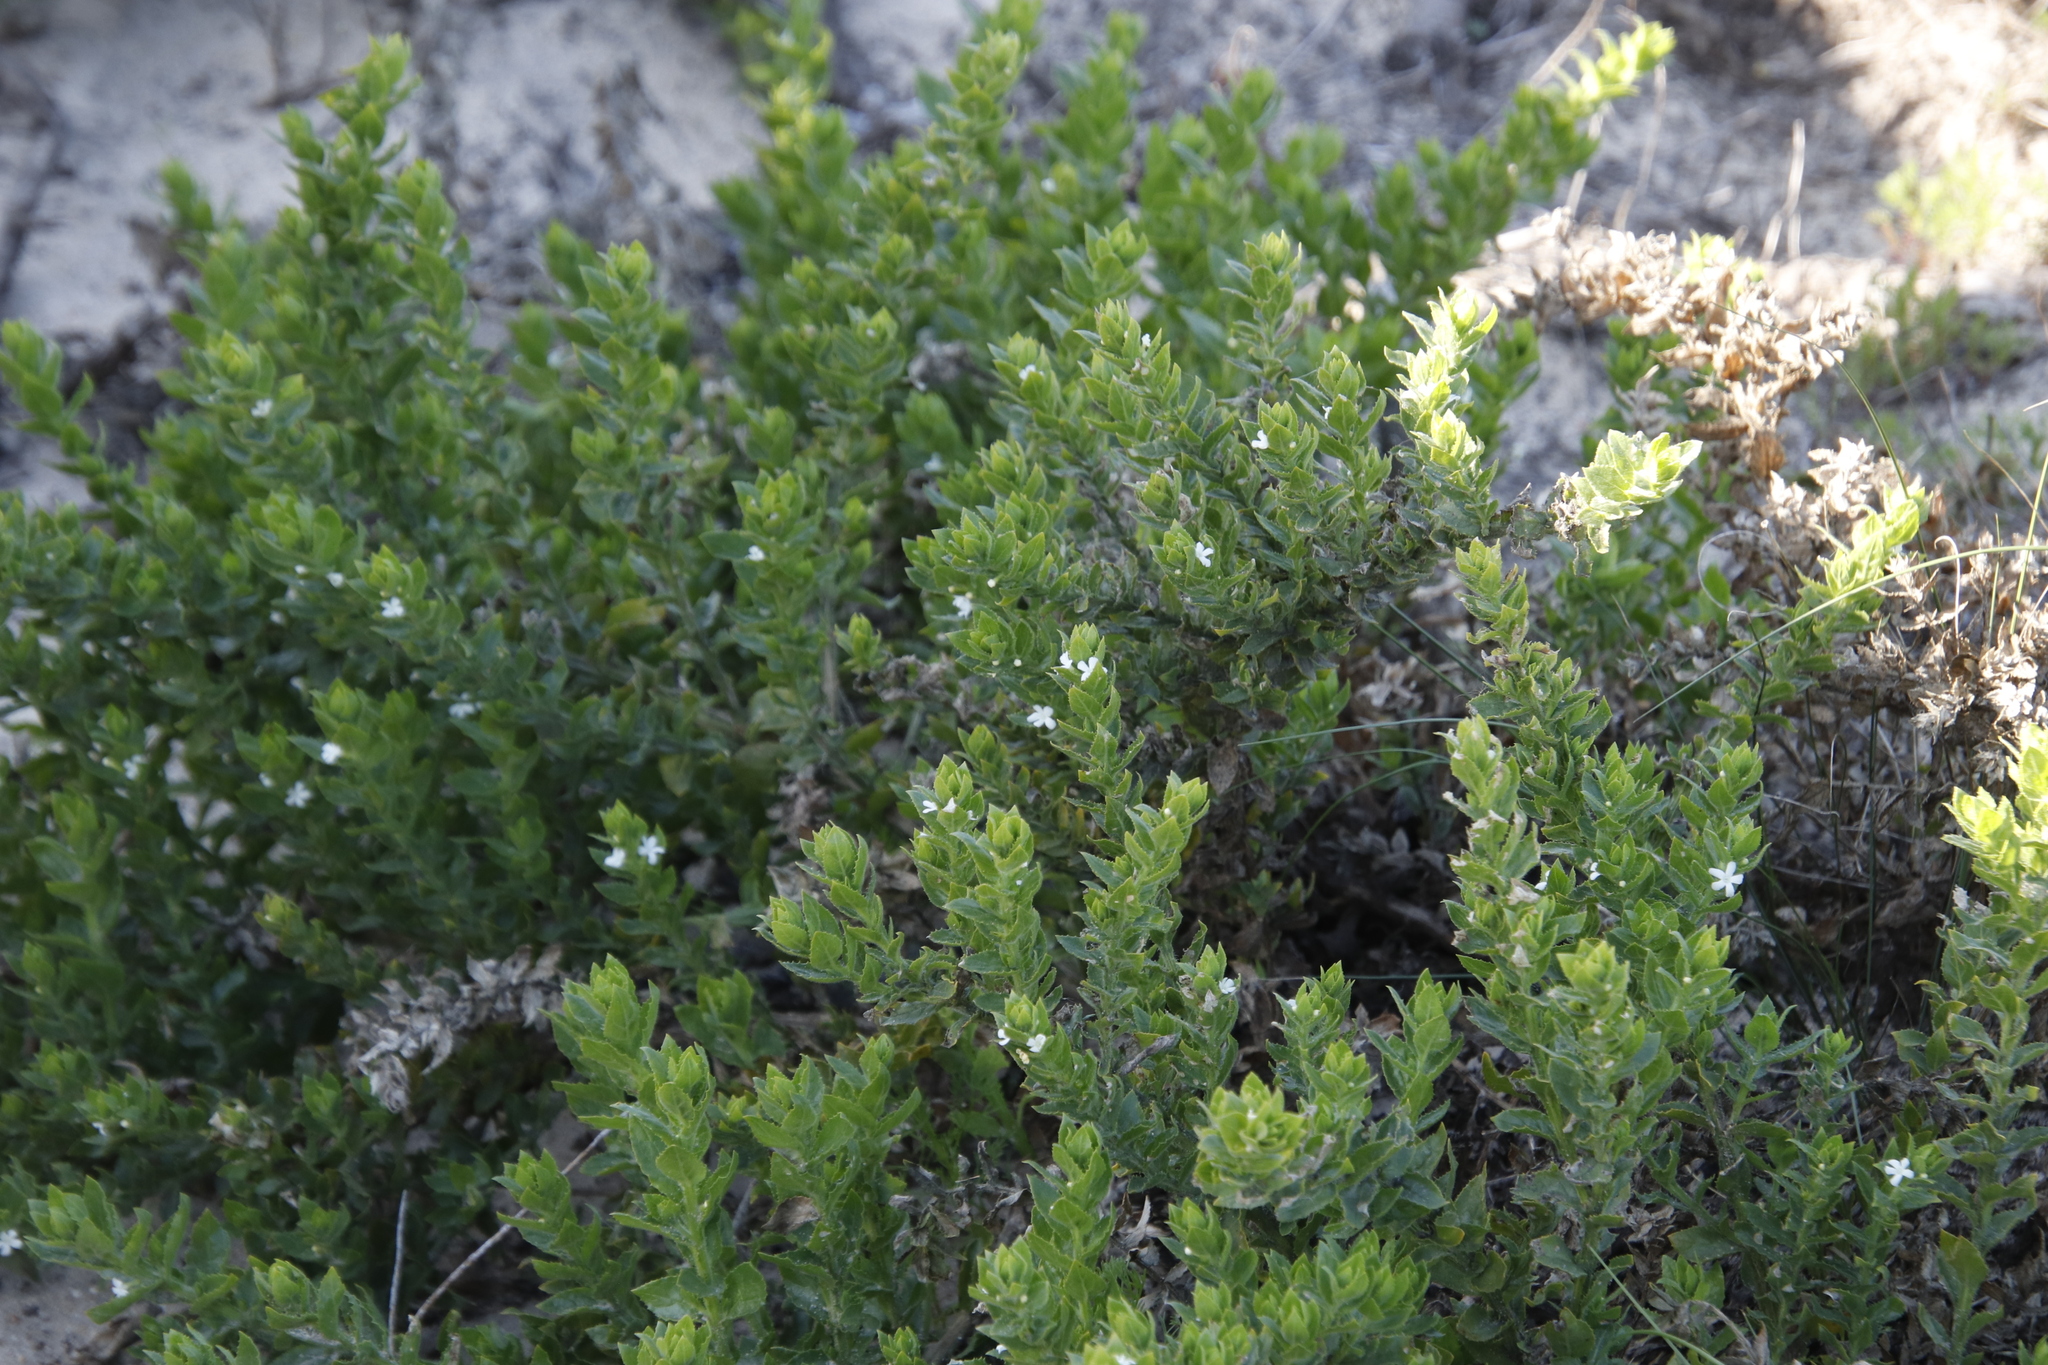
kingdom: Plantae
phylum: Tracheophyta
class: Magnoliopsida
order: Lamiales
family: Scrophulariaceae
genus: Oftia
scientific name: Oftia africana
